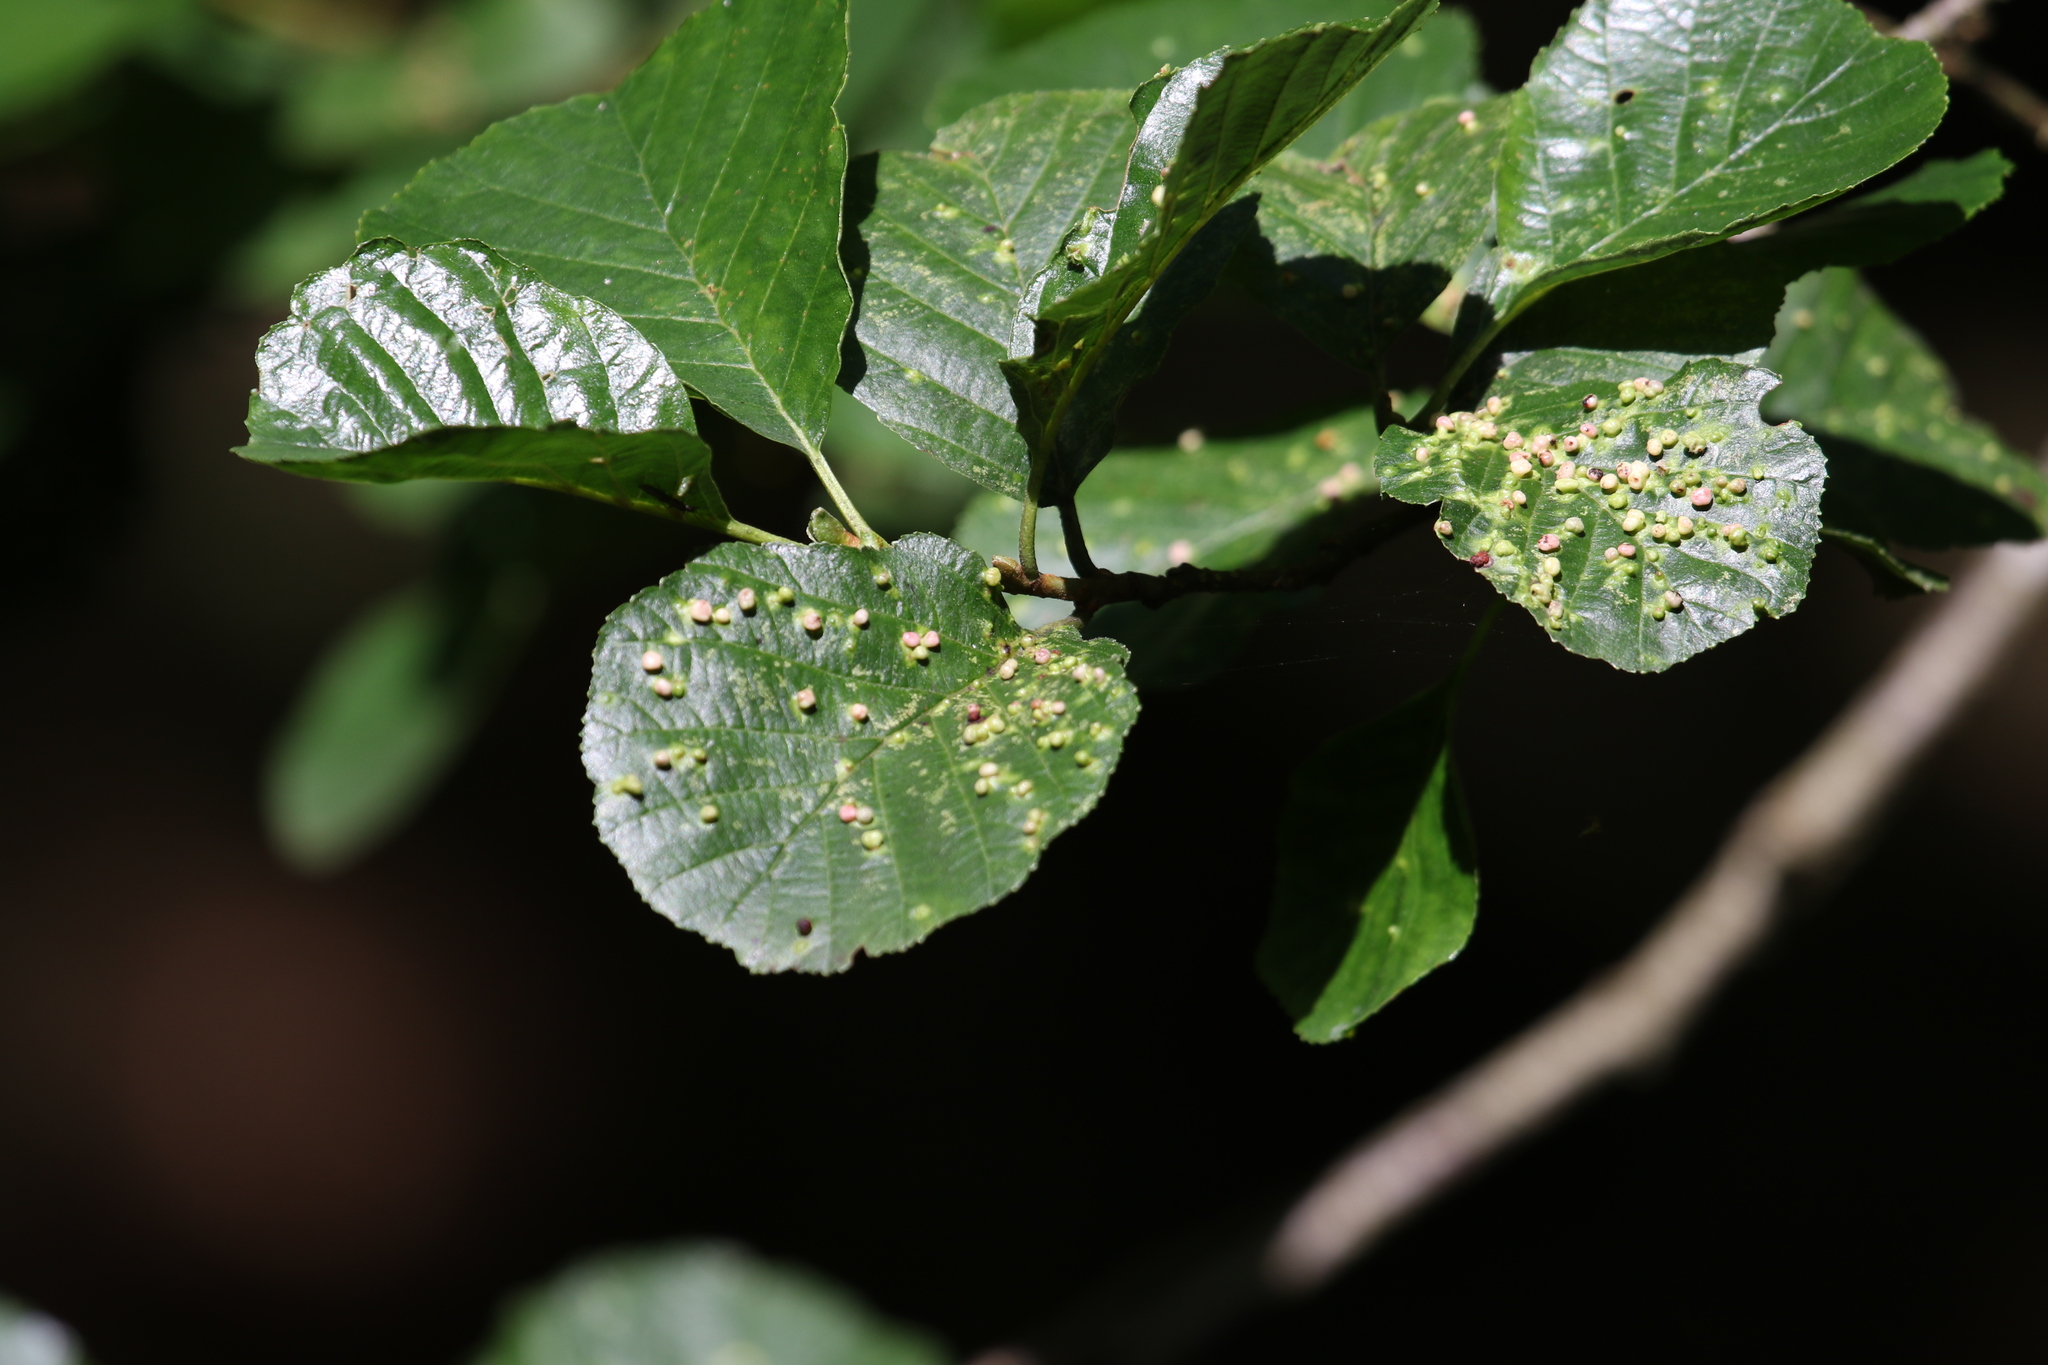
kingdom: Animalia
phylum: Arthropoda
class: Arachnida
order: Trombidiformes
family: Eriophyidae
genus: Eriophyes
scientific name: Eriophyes laevis
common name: Alder leaf gall mite
